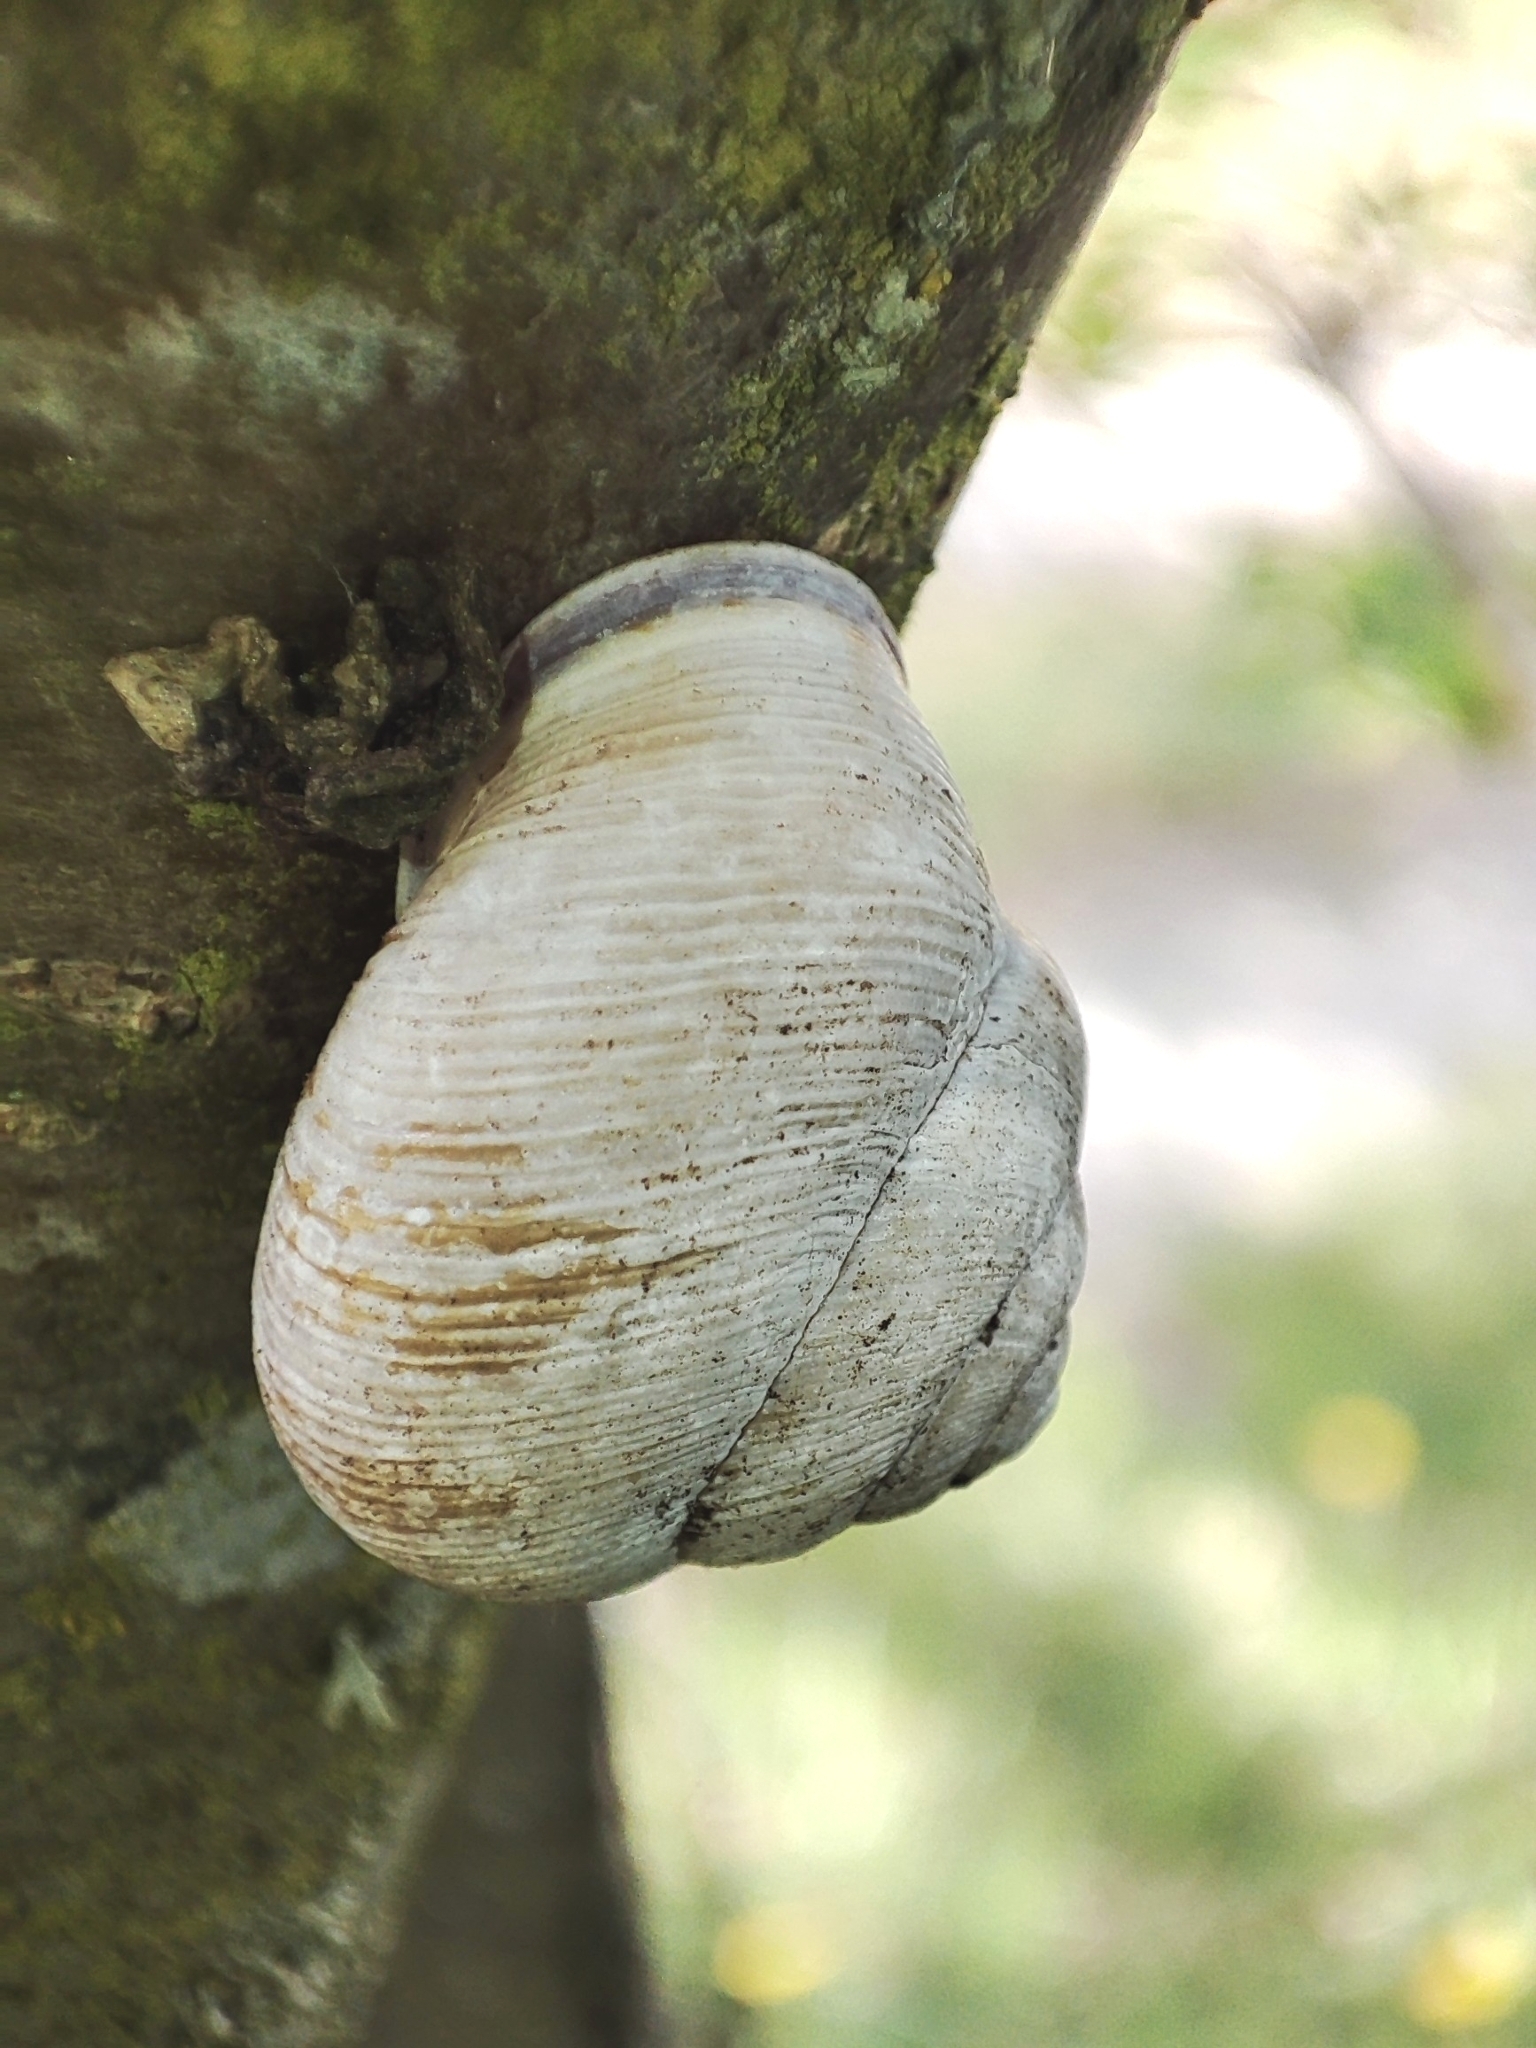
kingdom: Animalia
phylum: Mollusca
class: Gastropoda
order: Stylommatophora
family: Helicidae
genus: Caucasotachea
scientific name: Caucasotachea vindobonensis
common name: European helicid land snail
